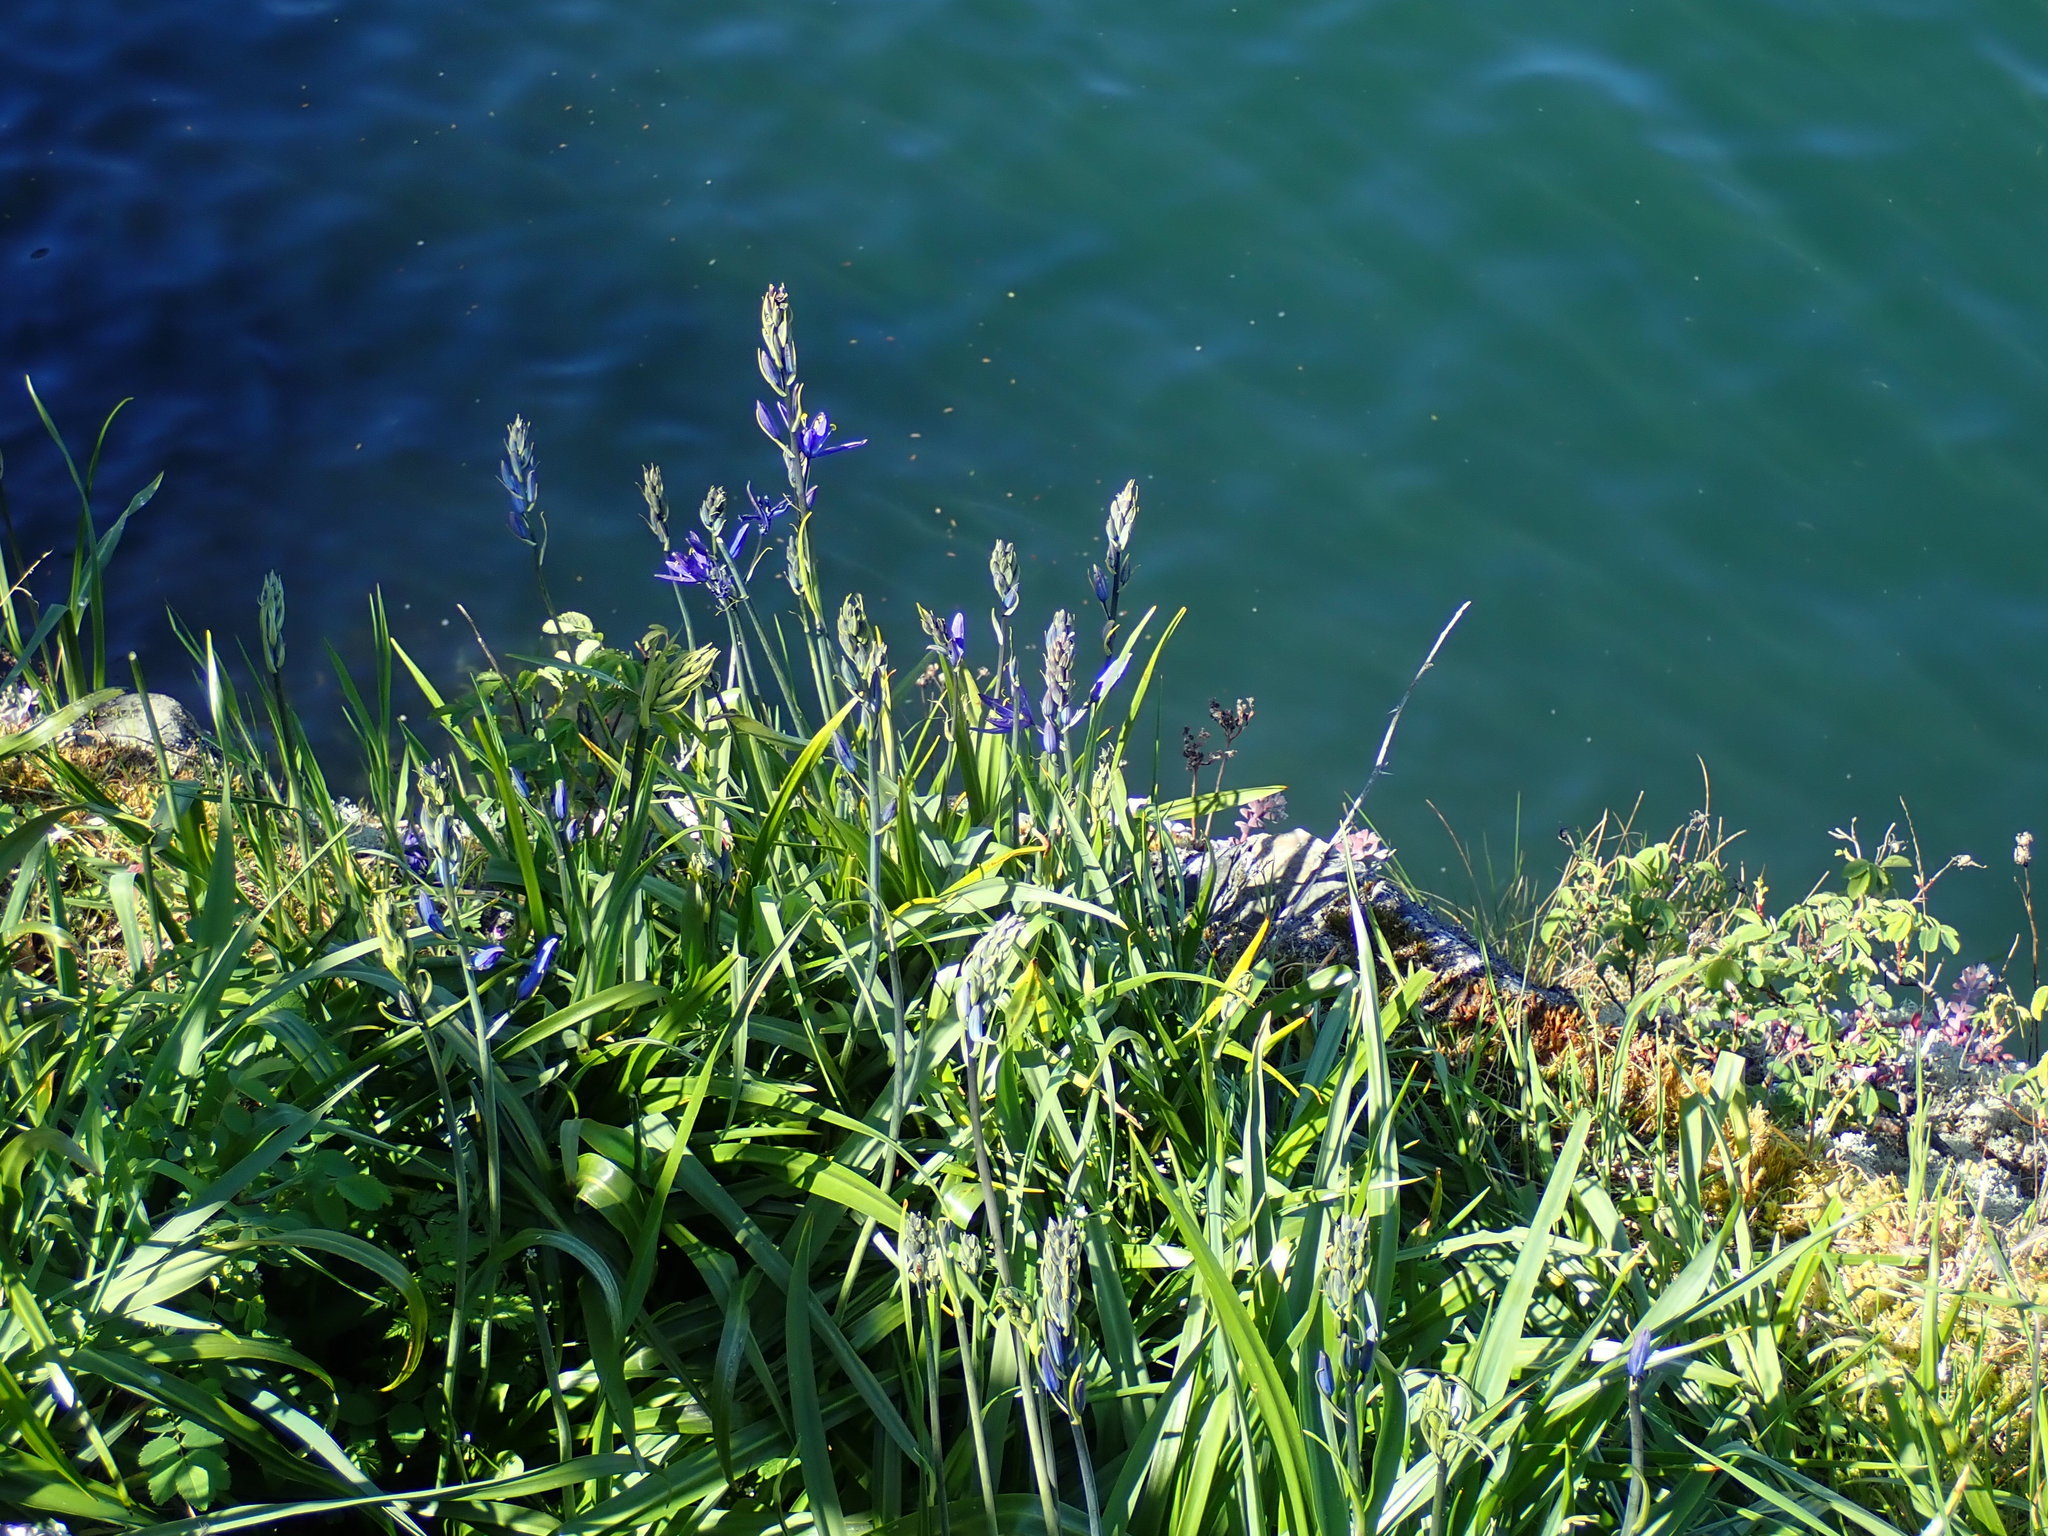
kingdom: Plantae
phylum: Tracheophyta
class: Liliopsida
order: Asparagales
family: Asparagaceae
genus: Camassia
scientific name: Camassia quamash
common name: Common camas
